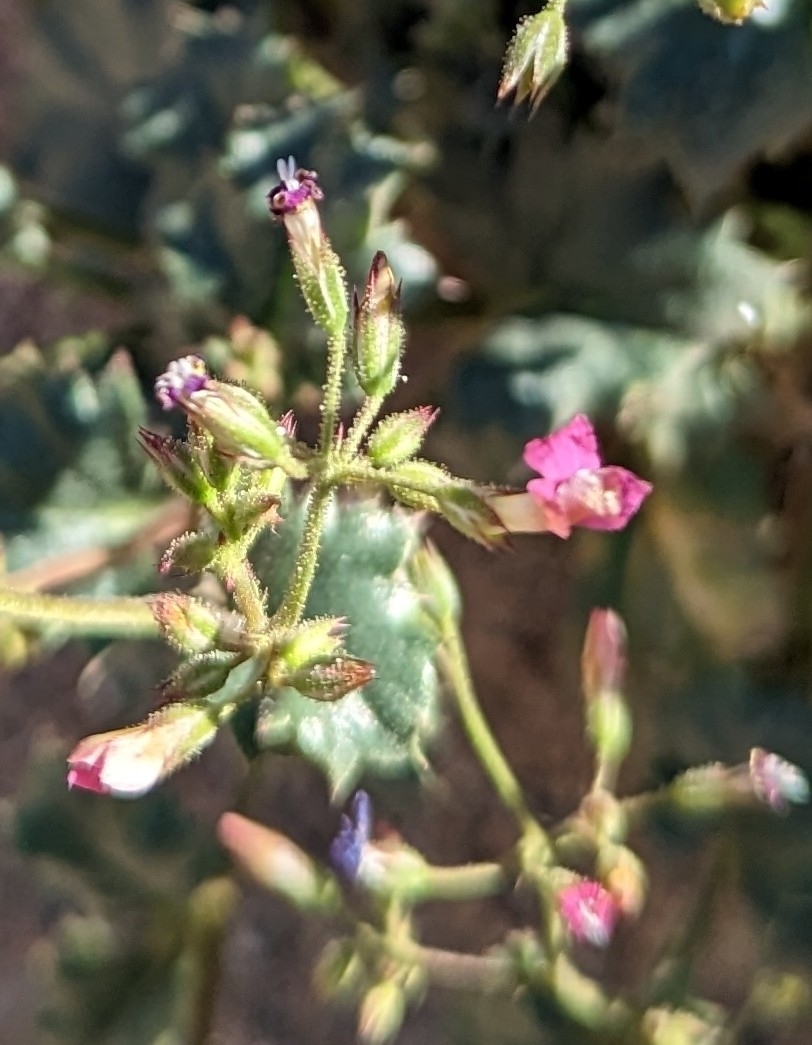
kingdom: Plantae
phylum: Tracheophyta
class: Magnoliopsida
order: Ericales
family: Polemoniaceae
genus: Aliciella
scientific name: Aliciella latifolia
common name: Broad-leaf gilia
